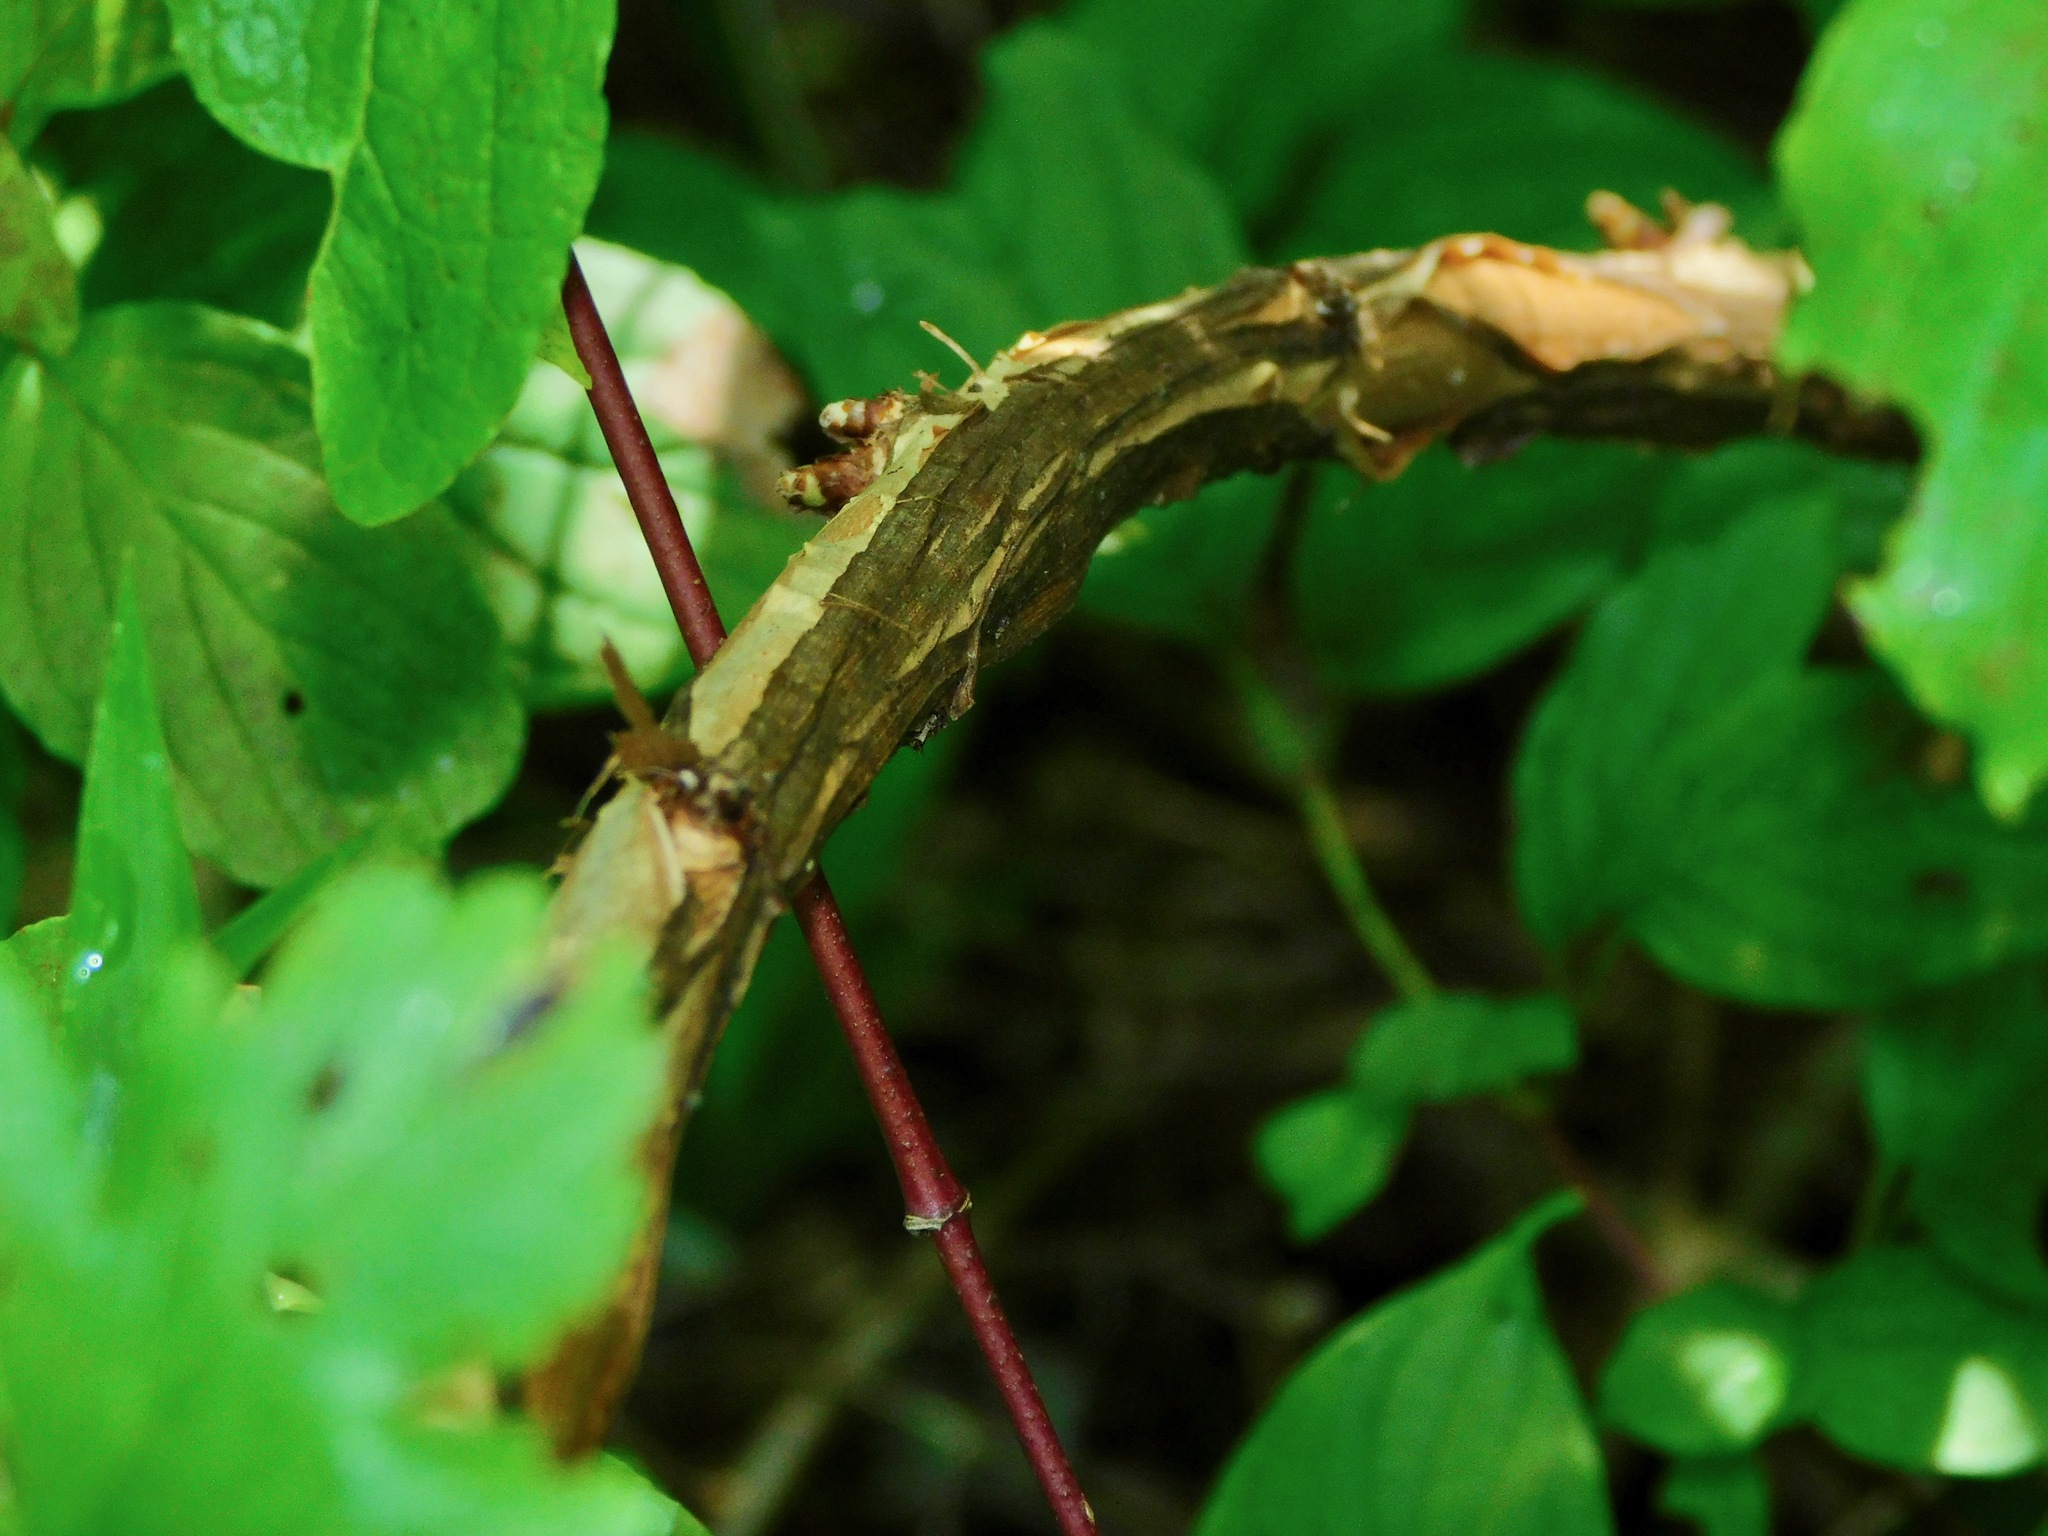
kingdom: Plantae
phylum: Tracheophyta
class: Magnoliopsida
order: Rosales
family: Rosaceae
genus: Physocarpus
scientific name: Physocarpus opulifolius
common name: Ninebark
